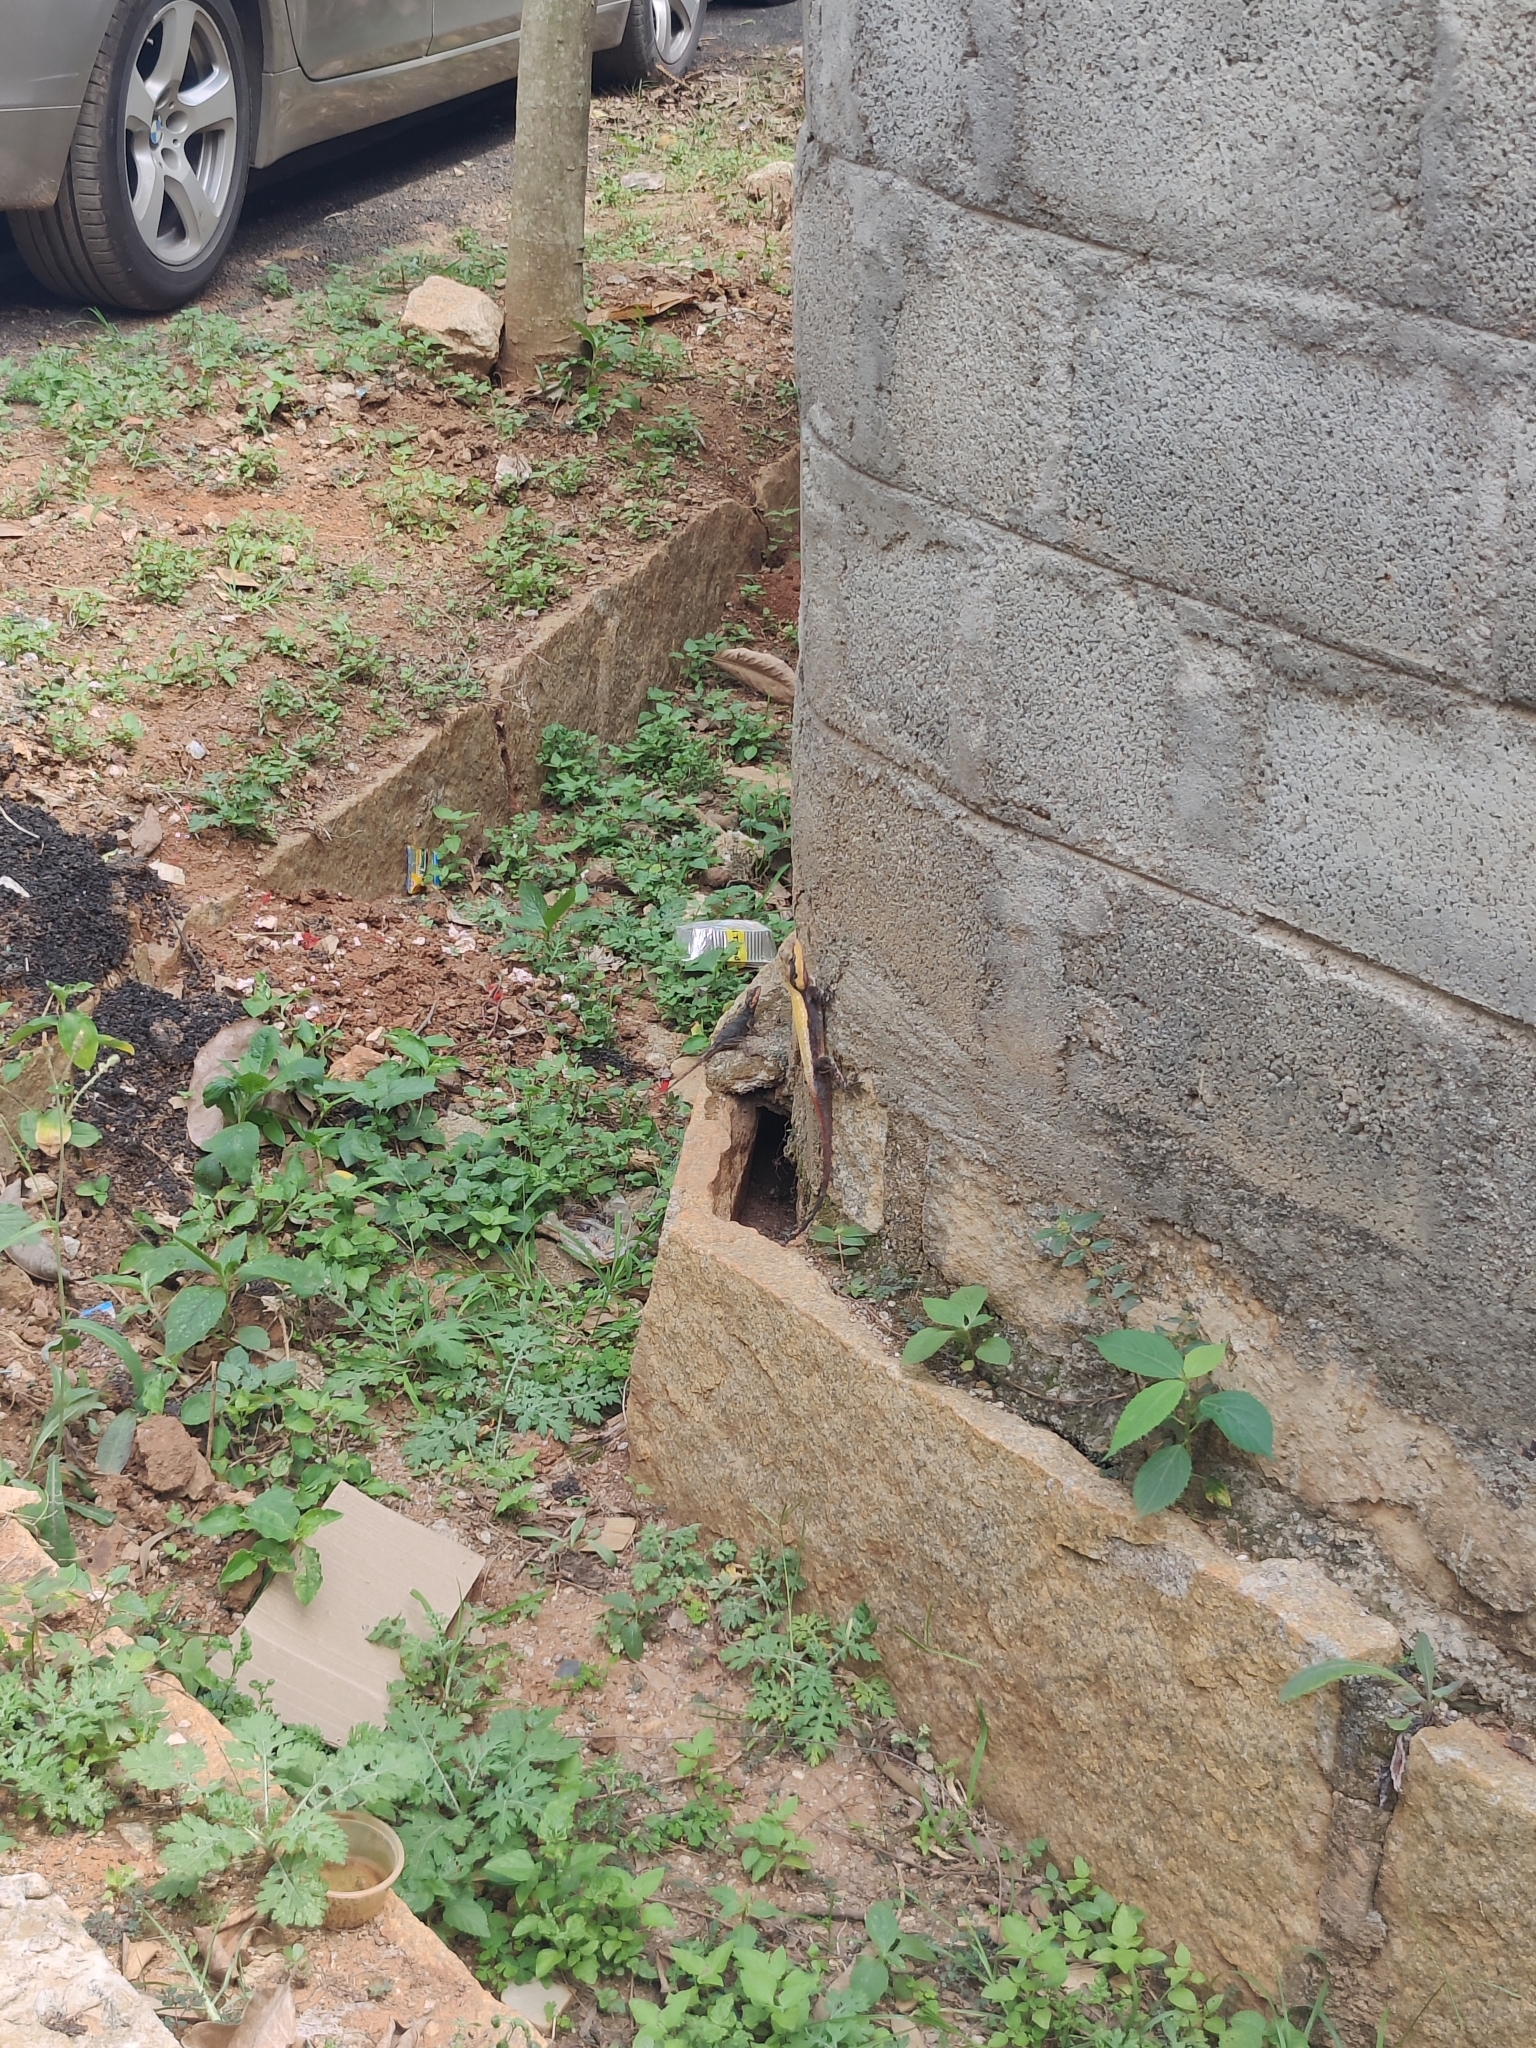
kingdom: Animalia
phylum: Chordata
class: Squamata
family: Agamidae
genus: Psammophilus
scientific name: Psammophilus
